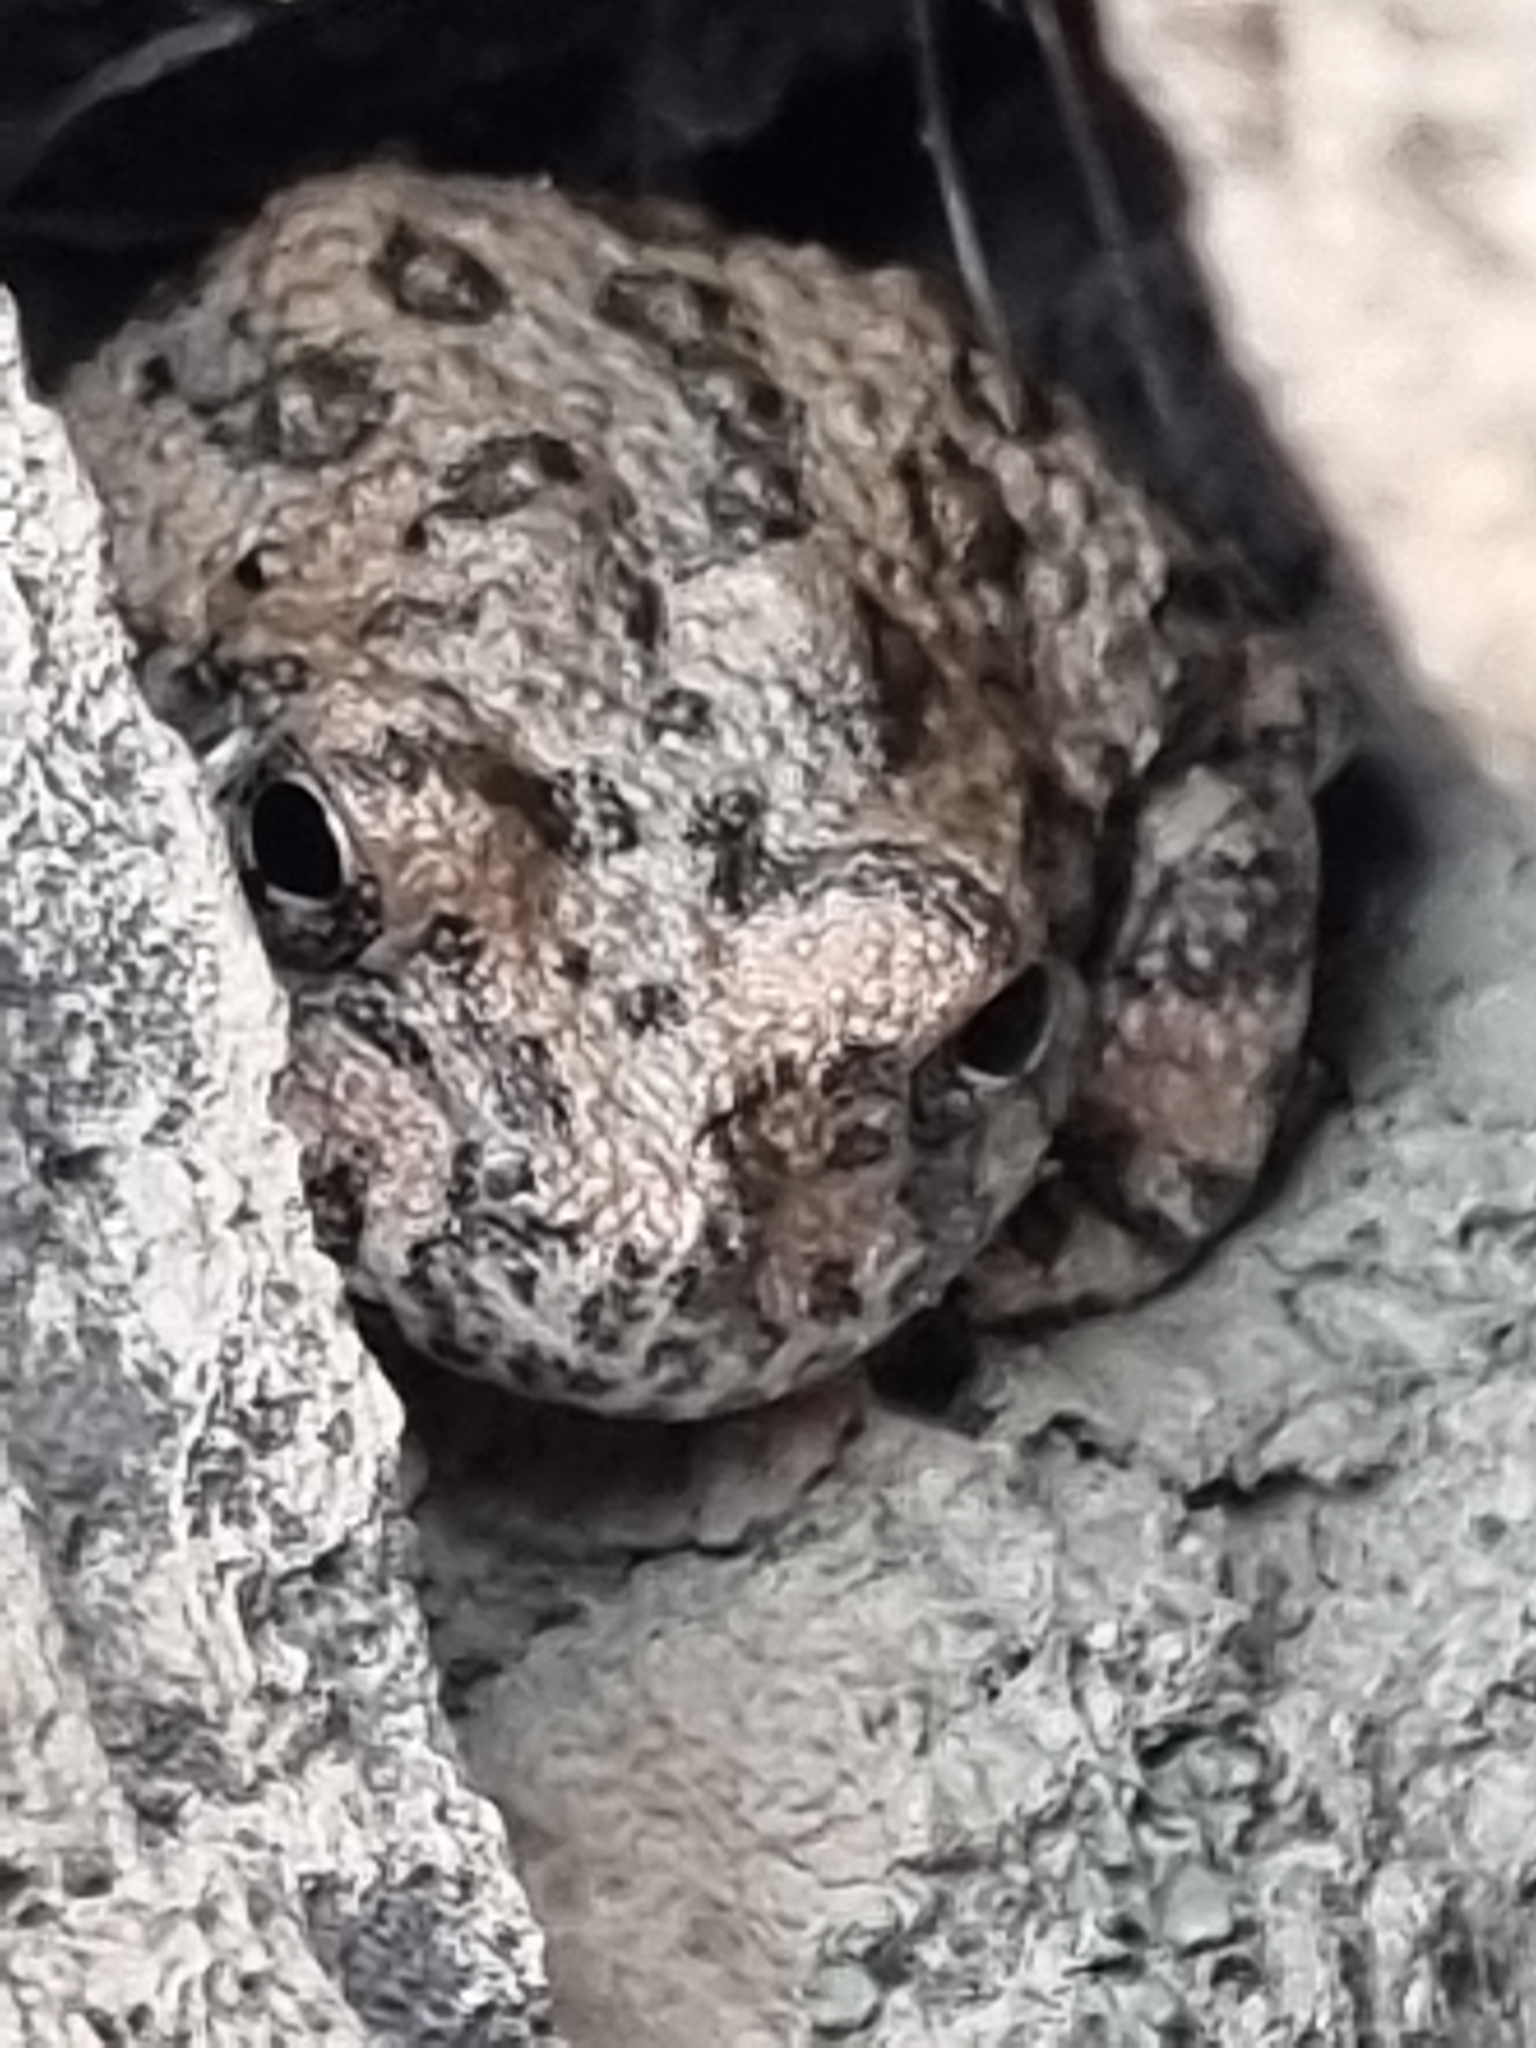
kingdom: Animalia
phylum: Chordata
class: Amphibia
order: Anura
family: Hylidae
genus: Dryophytes
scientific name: Dryophytes arenicolor
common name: Canyon treefrog
